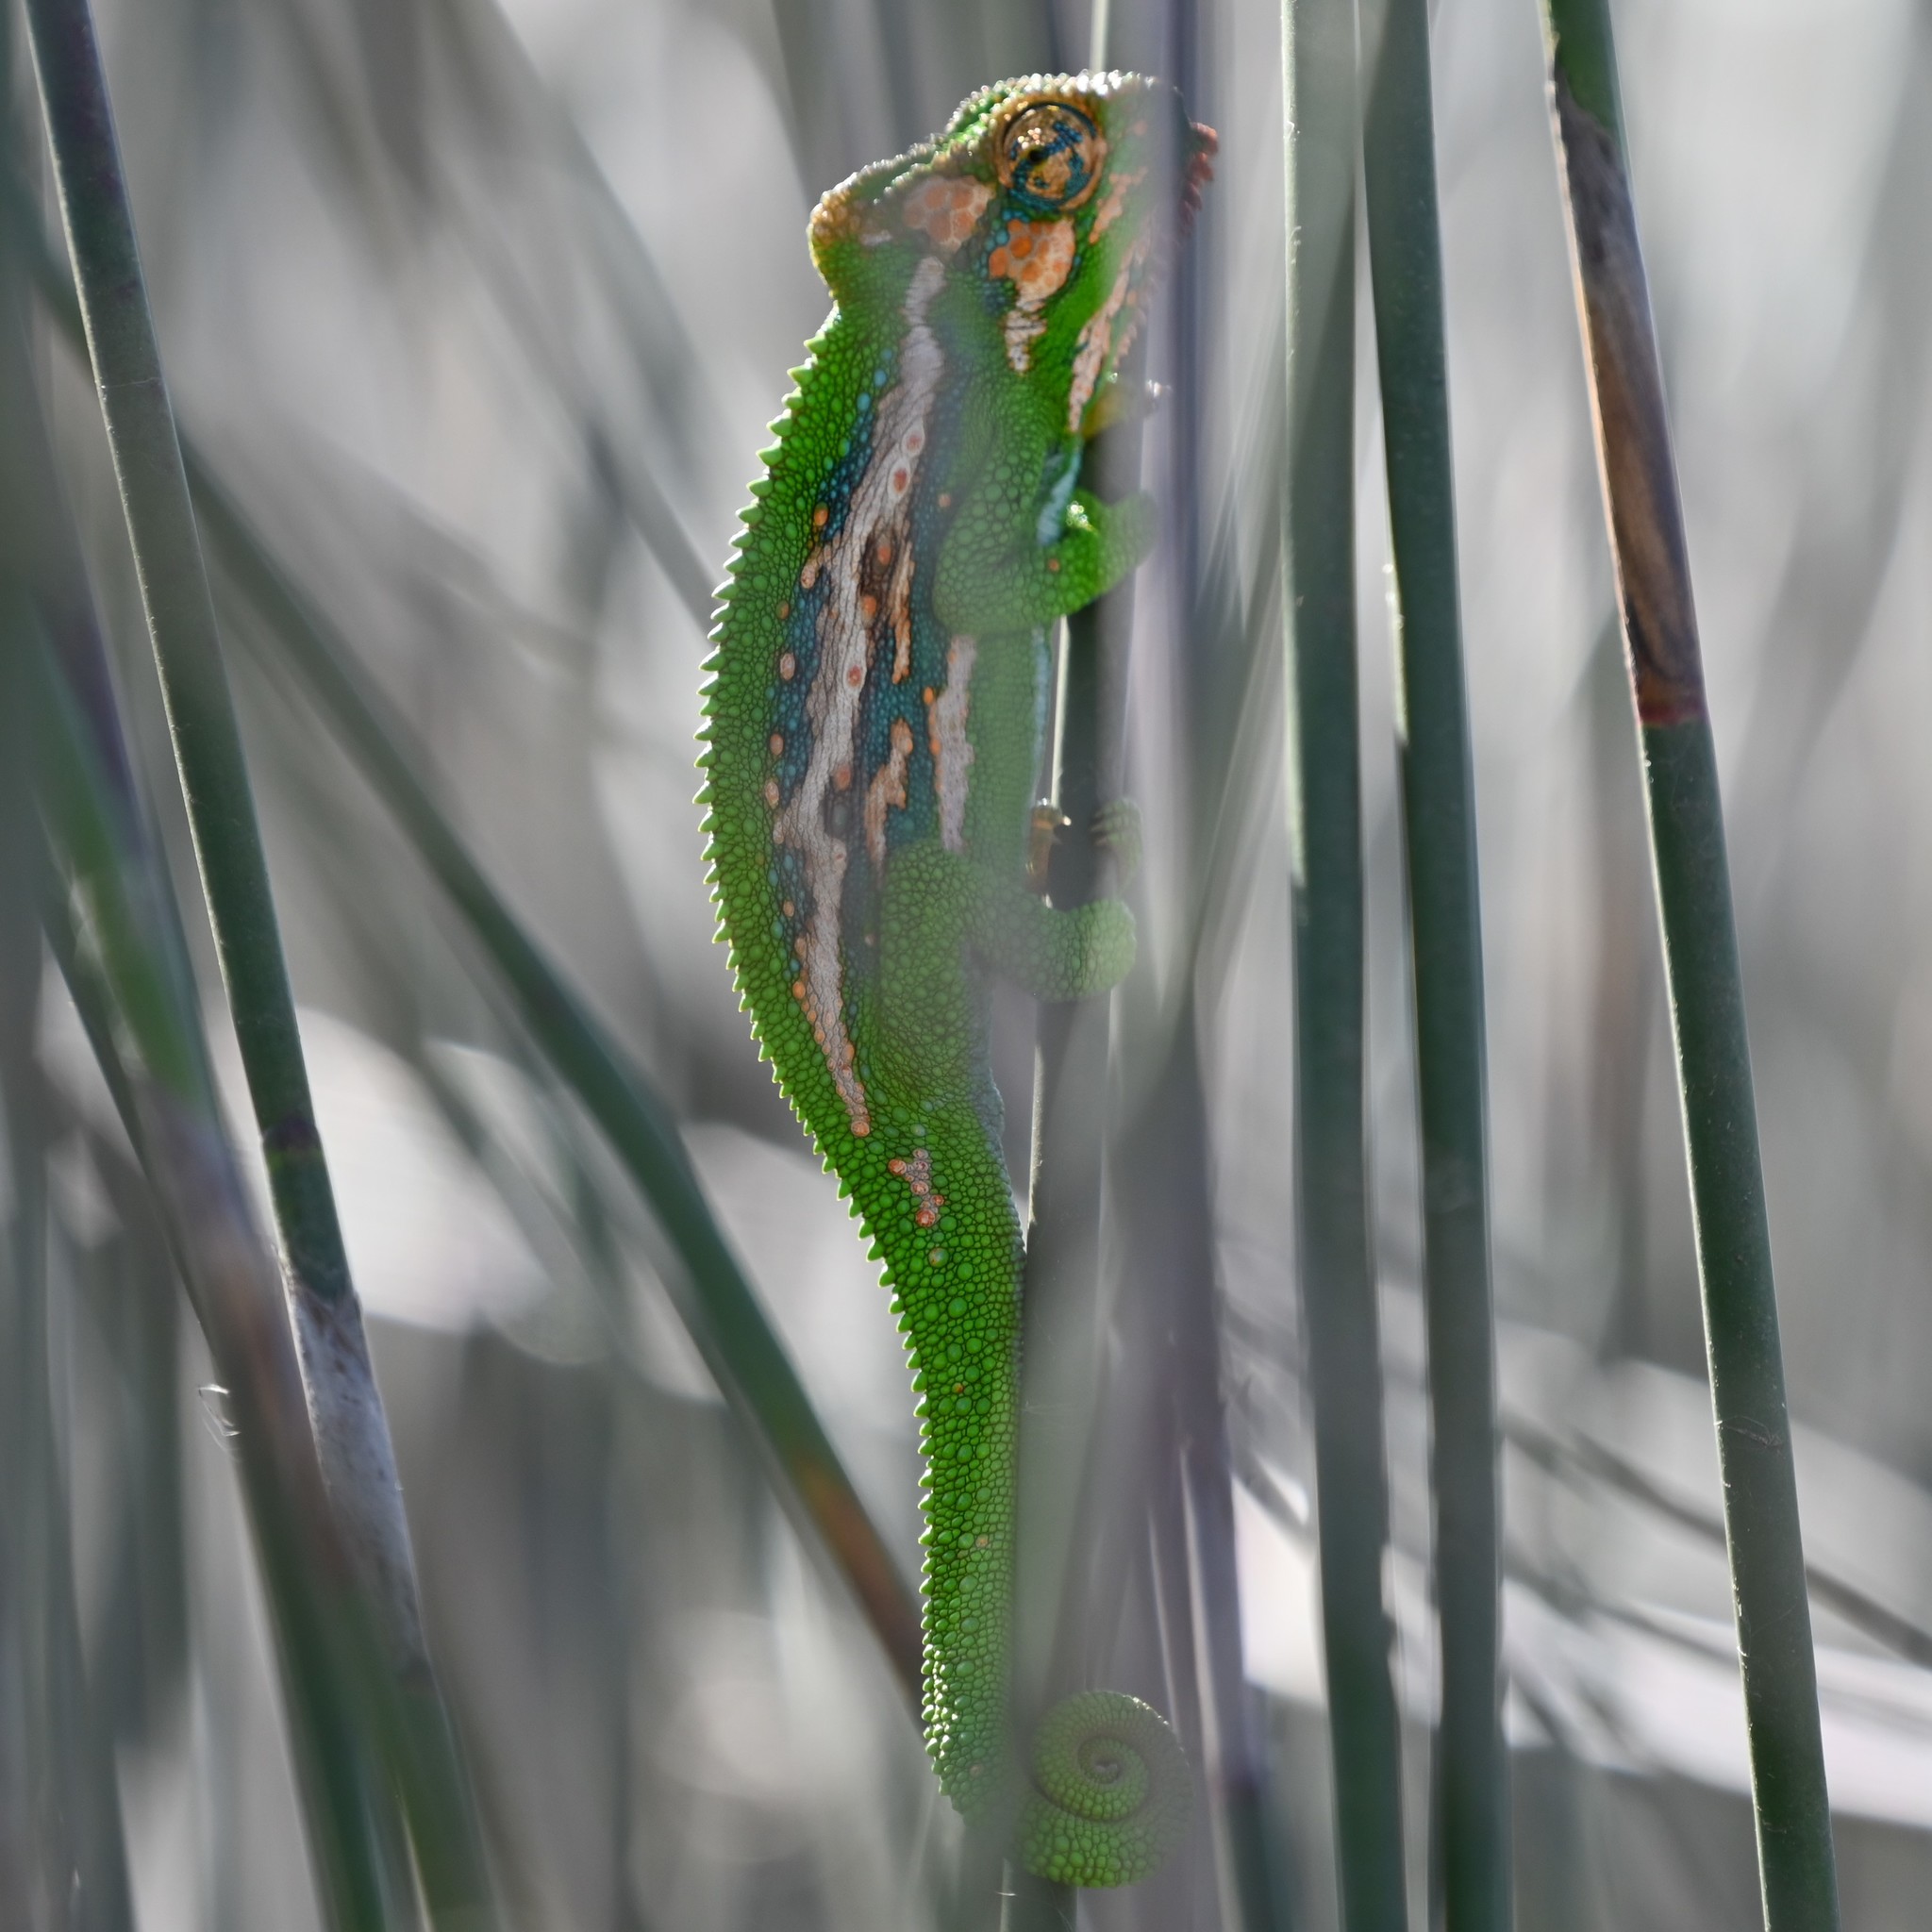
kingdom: Animalia
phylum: Chordata
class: Squamata
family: Chamaeleonidae
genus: Bradypodion
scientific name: Bradypodion pumilum
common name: Cape dwarf chameleon
